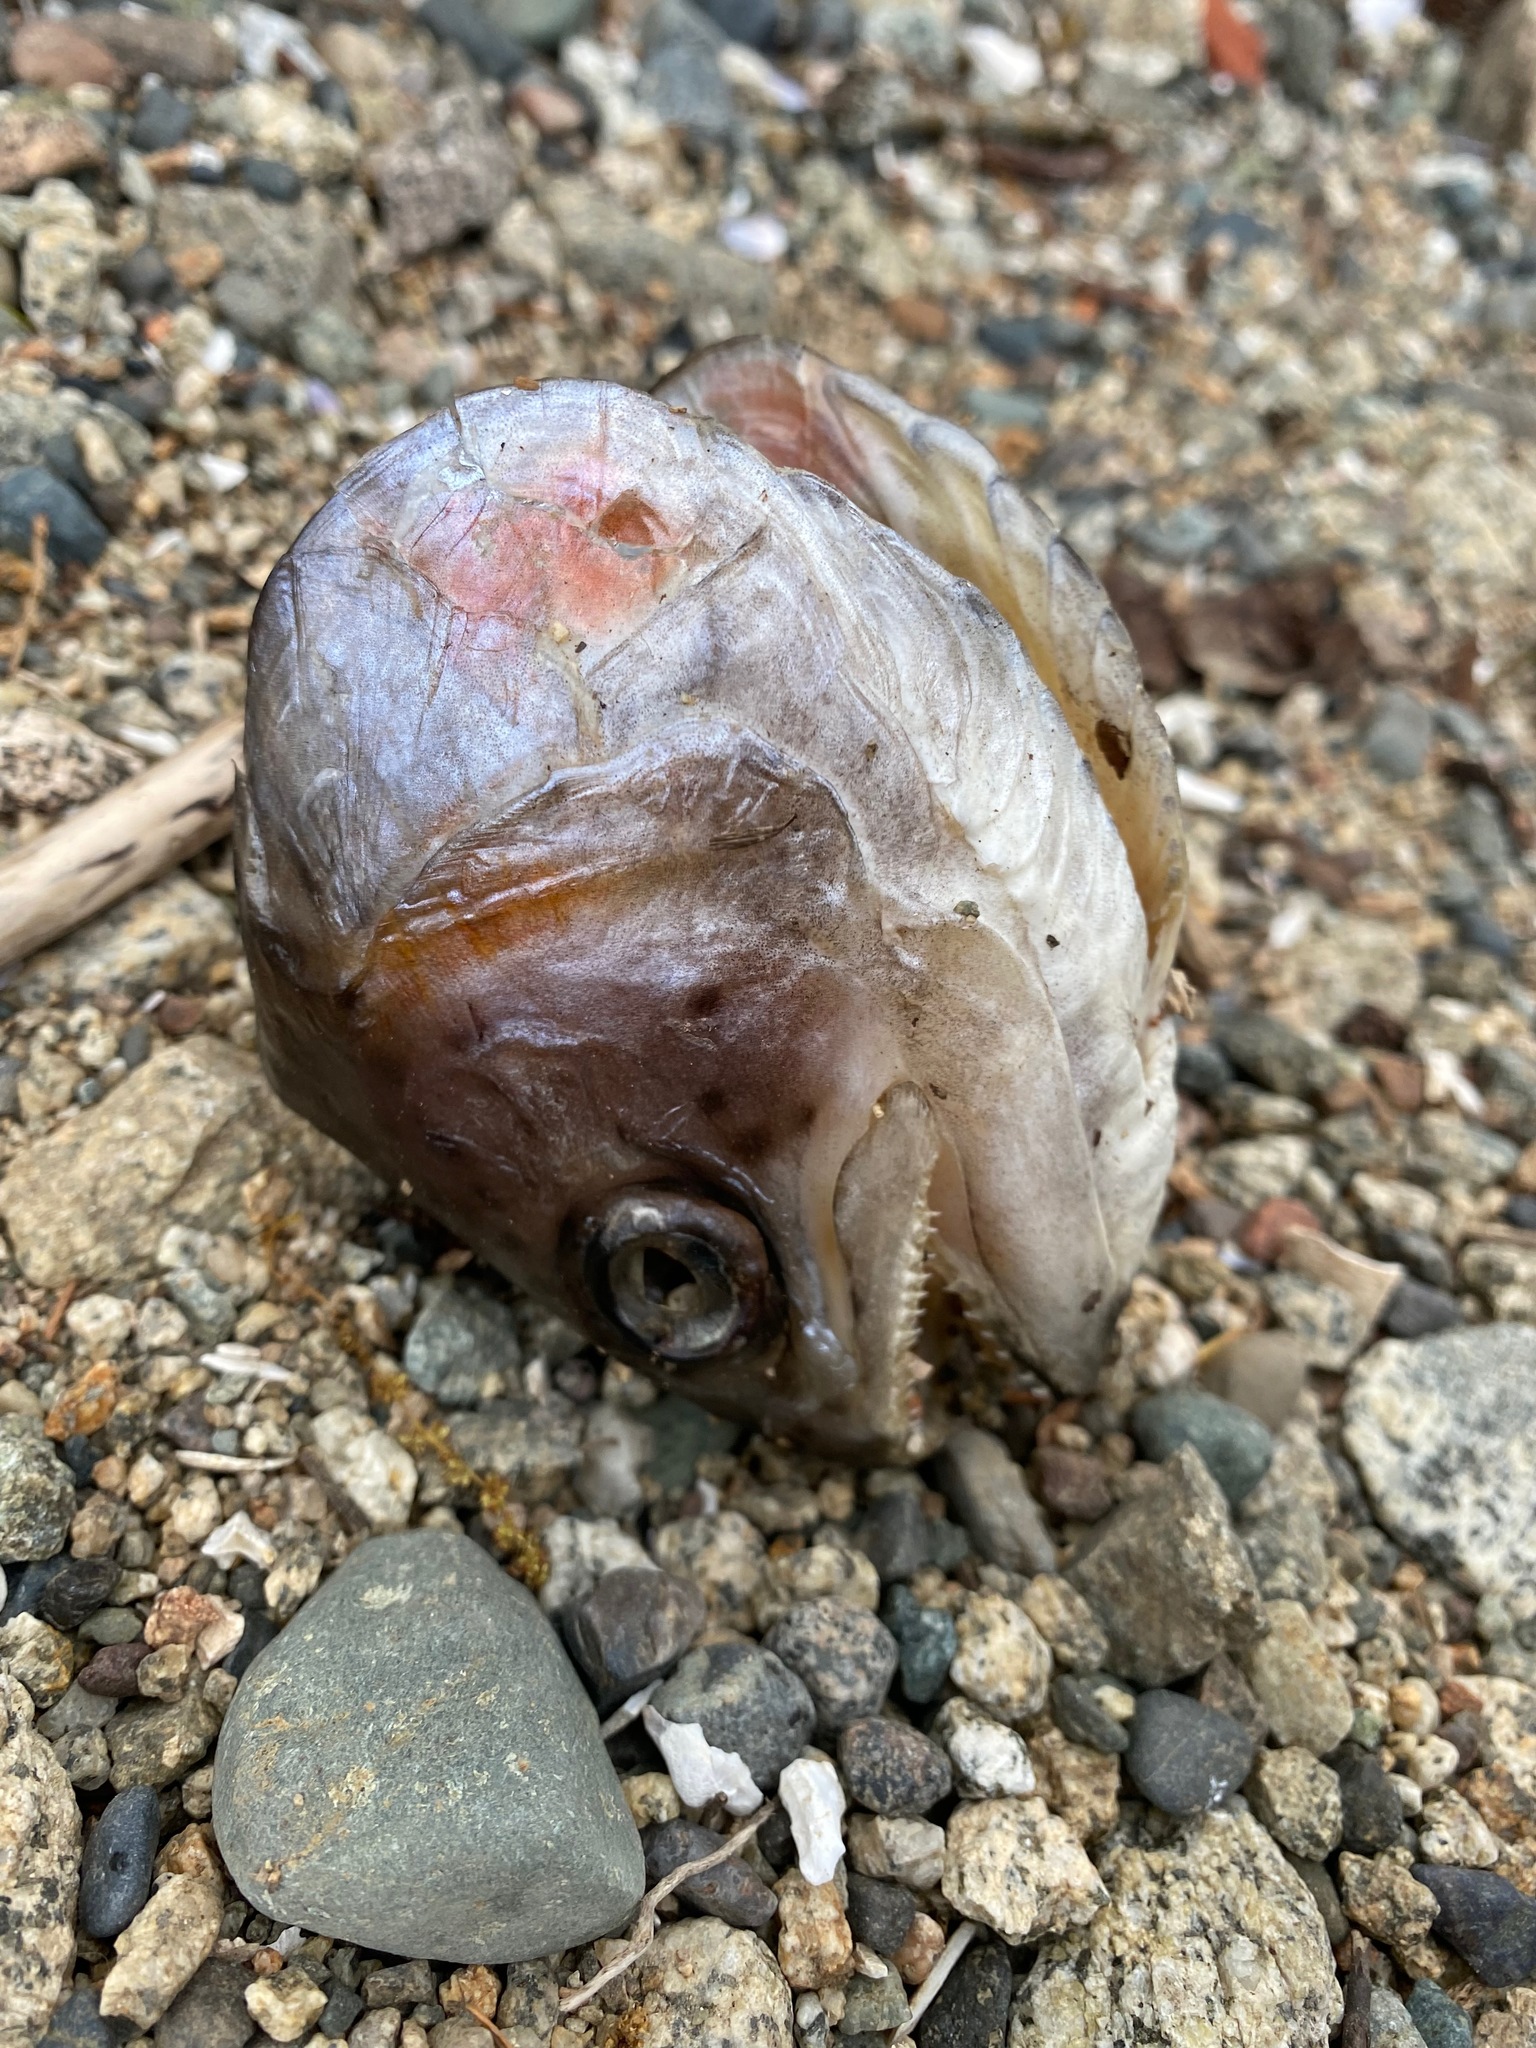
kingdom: Animalia
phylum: Chordata
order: Salmoniformes
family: Salmonidae
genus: Oncorhynchus
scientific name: Oncorhynchus mykiss
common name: Rainbow trout
